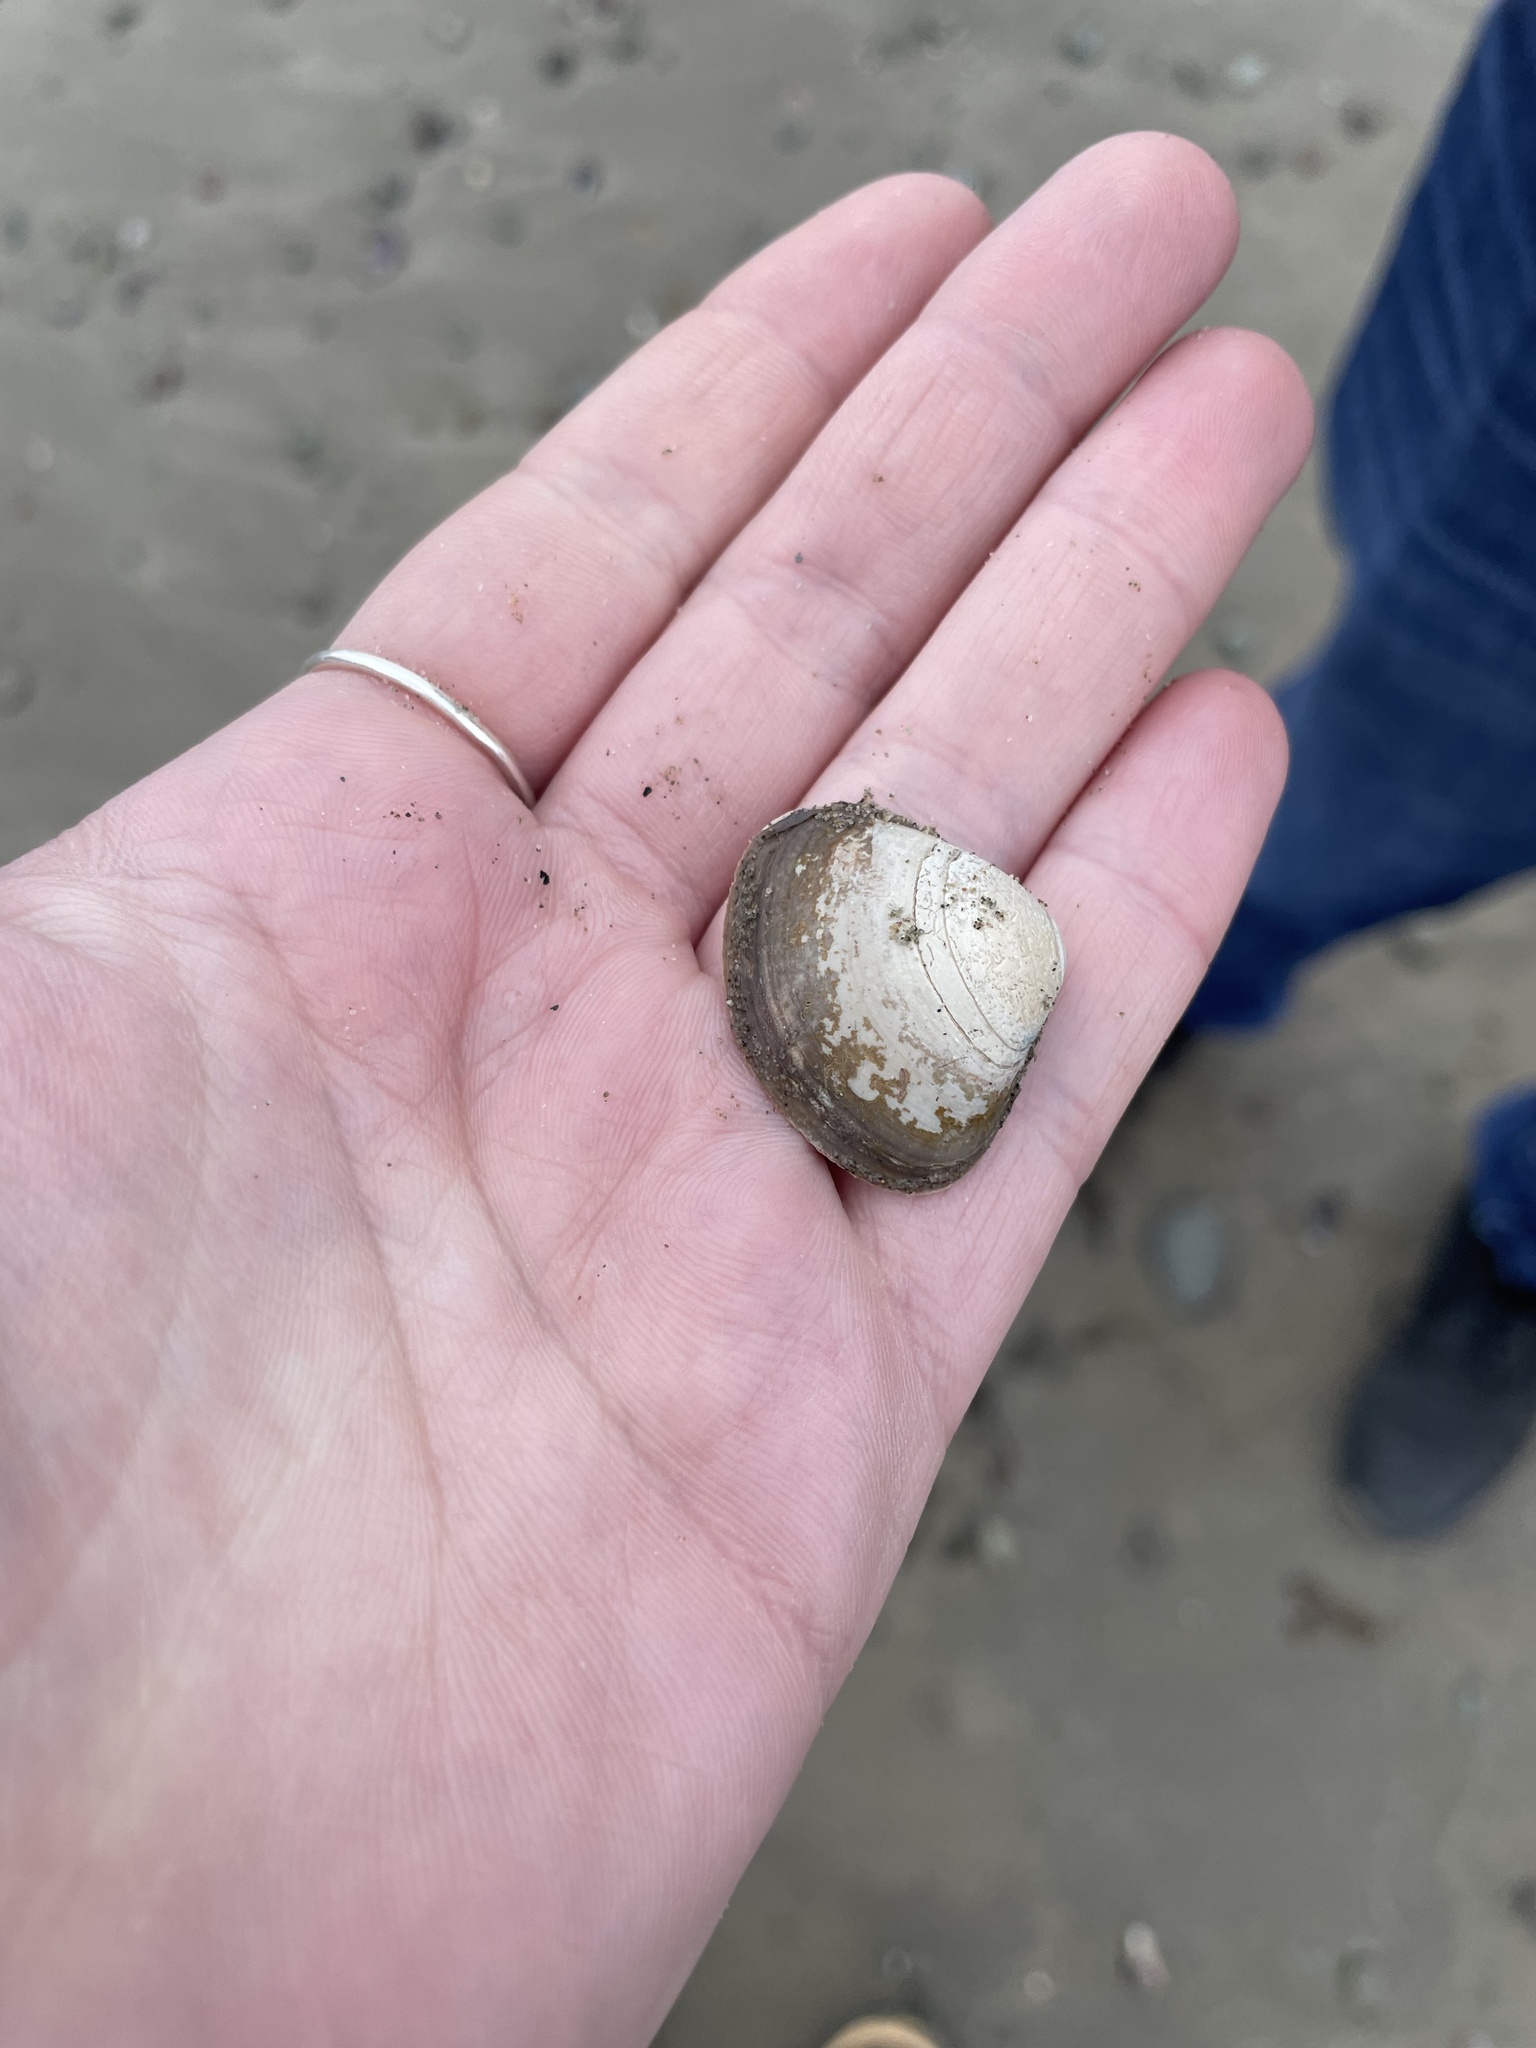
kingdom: Animalia
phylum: Mollusca
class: Bivalvia
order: Venerida
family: Mactridae
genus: Spisula
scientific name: Spisula solidissima
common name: Atlantic surf clam
